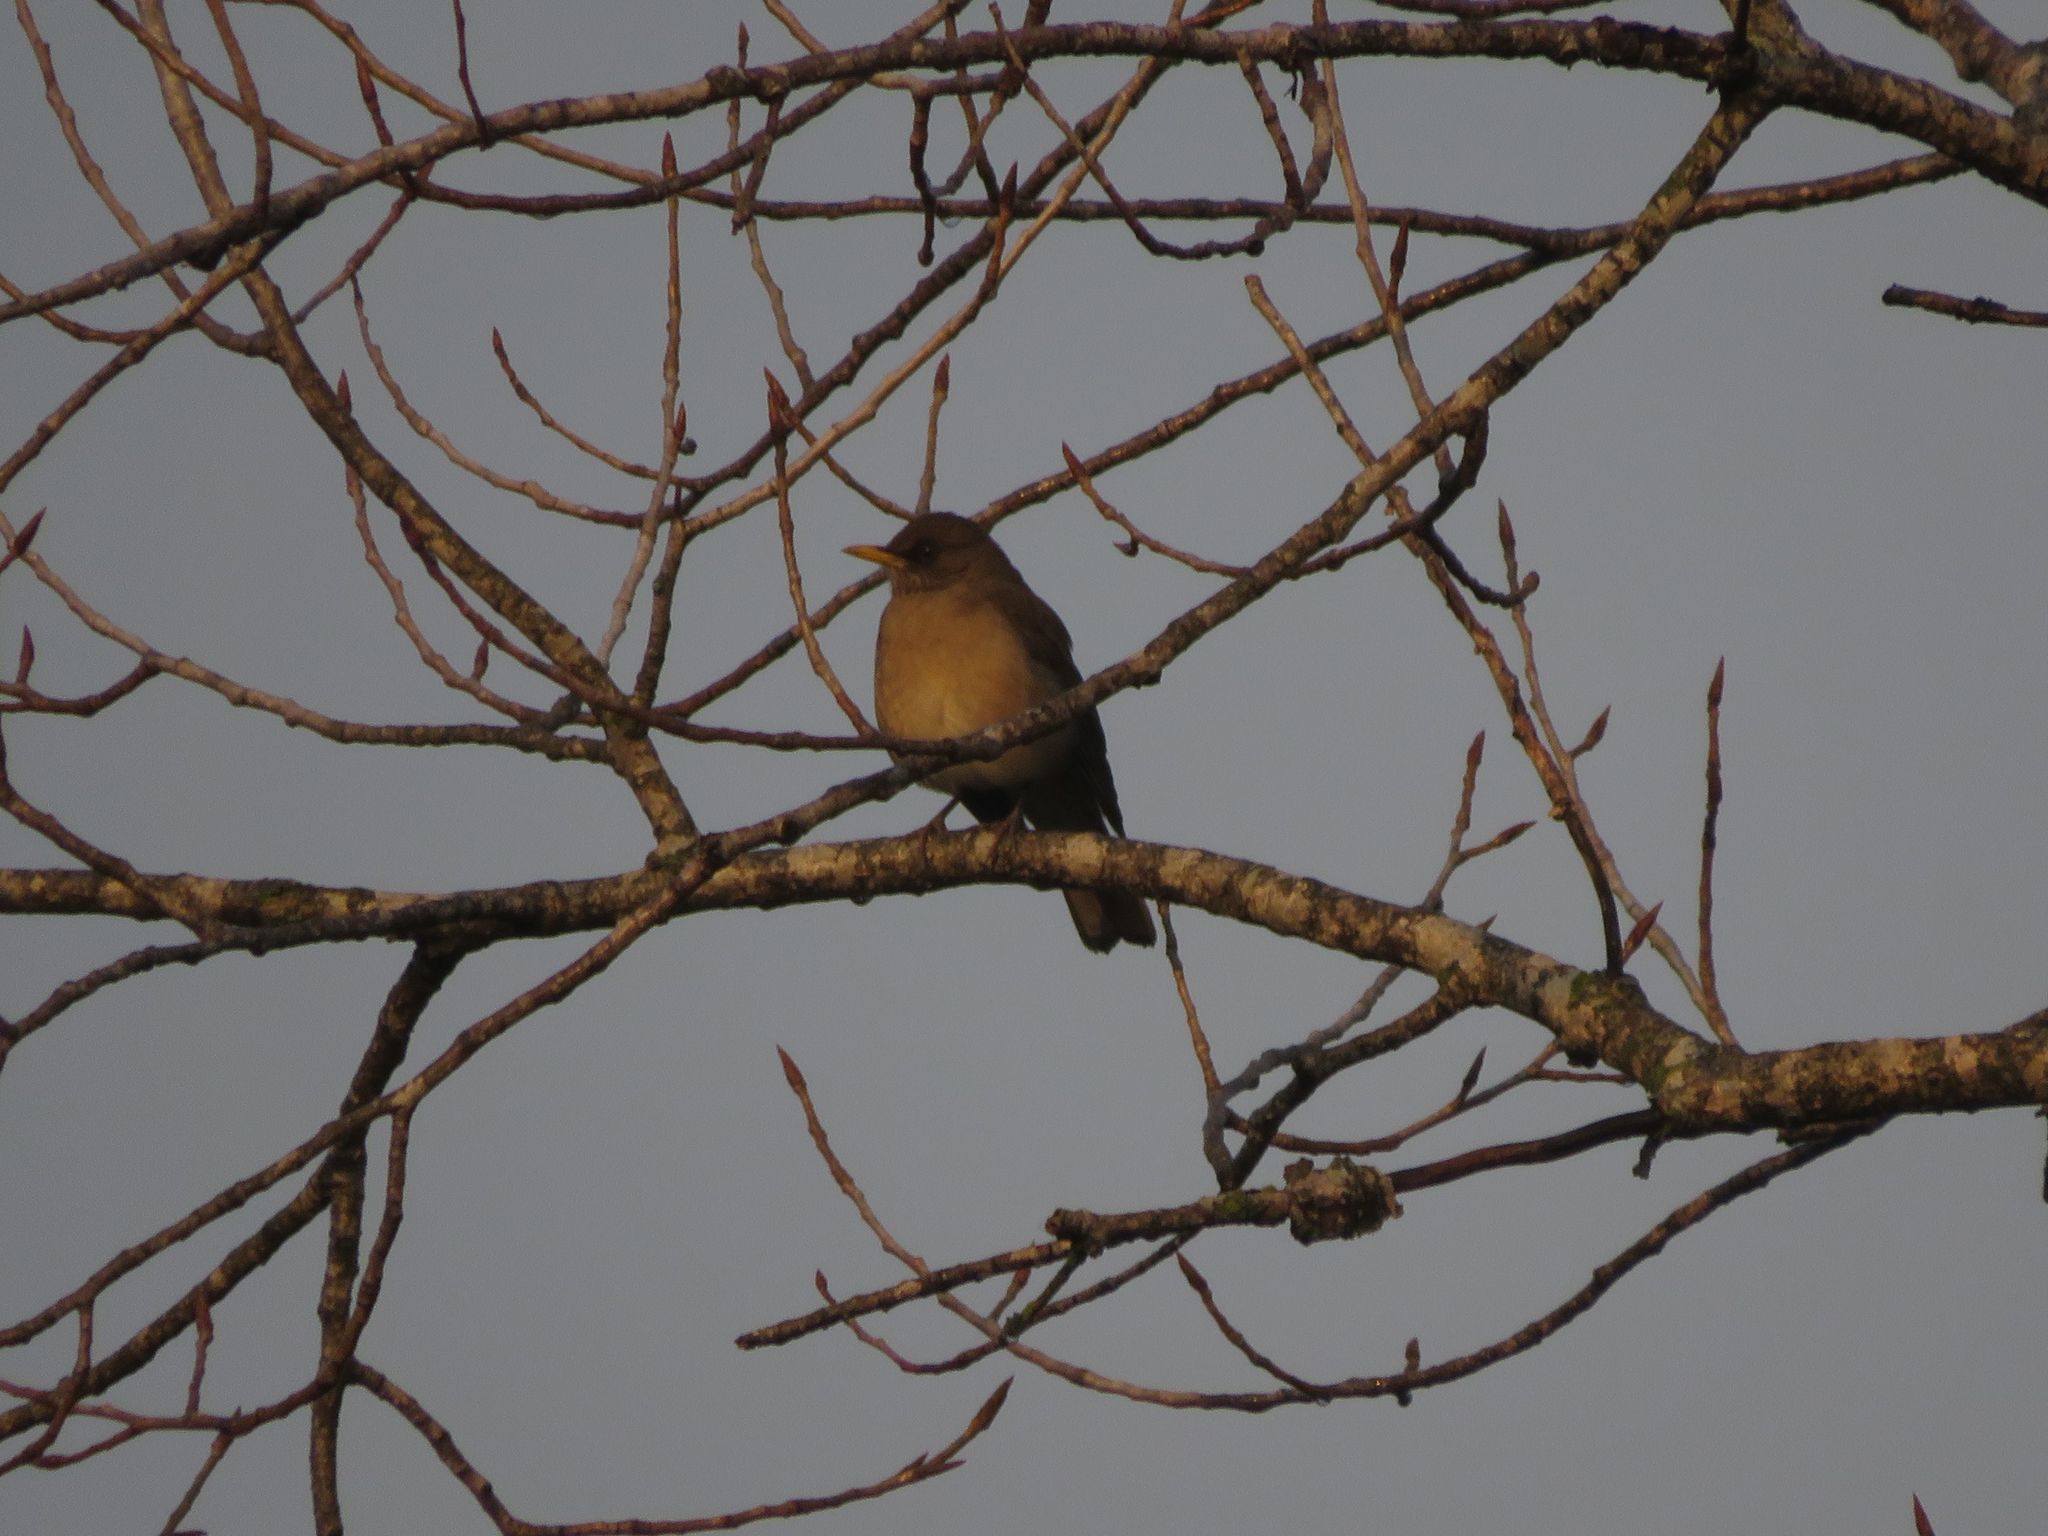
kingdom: Animalia
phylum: Chordata
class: Aves
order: Passeriformes
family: Turdidae
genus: Turdus
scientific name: Turdus amaurochalinus
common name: Creamy-bellied thrush
